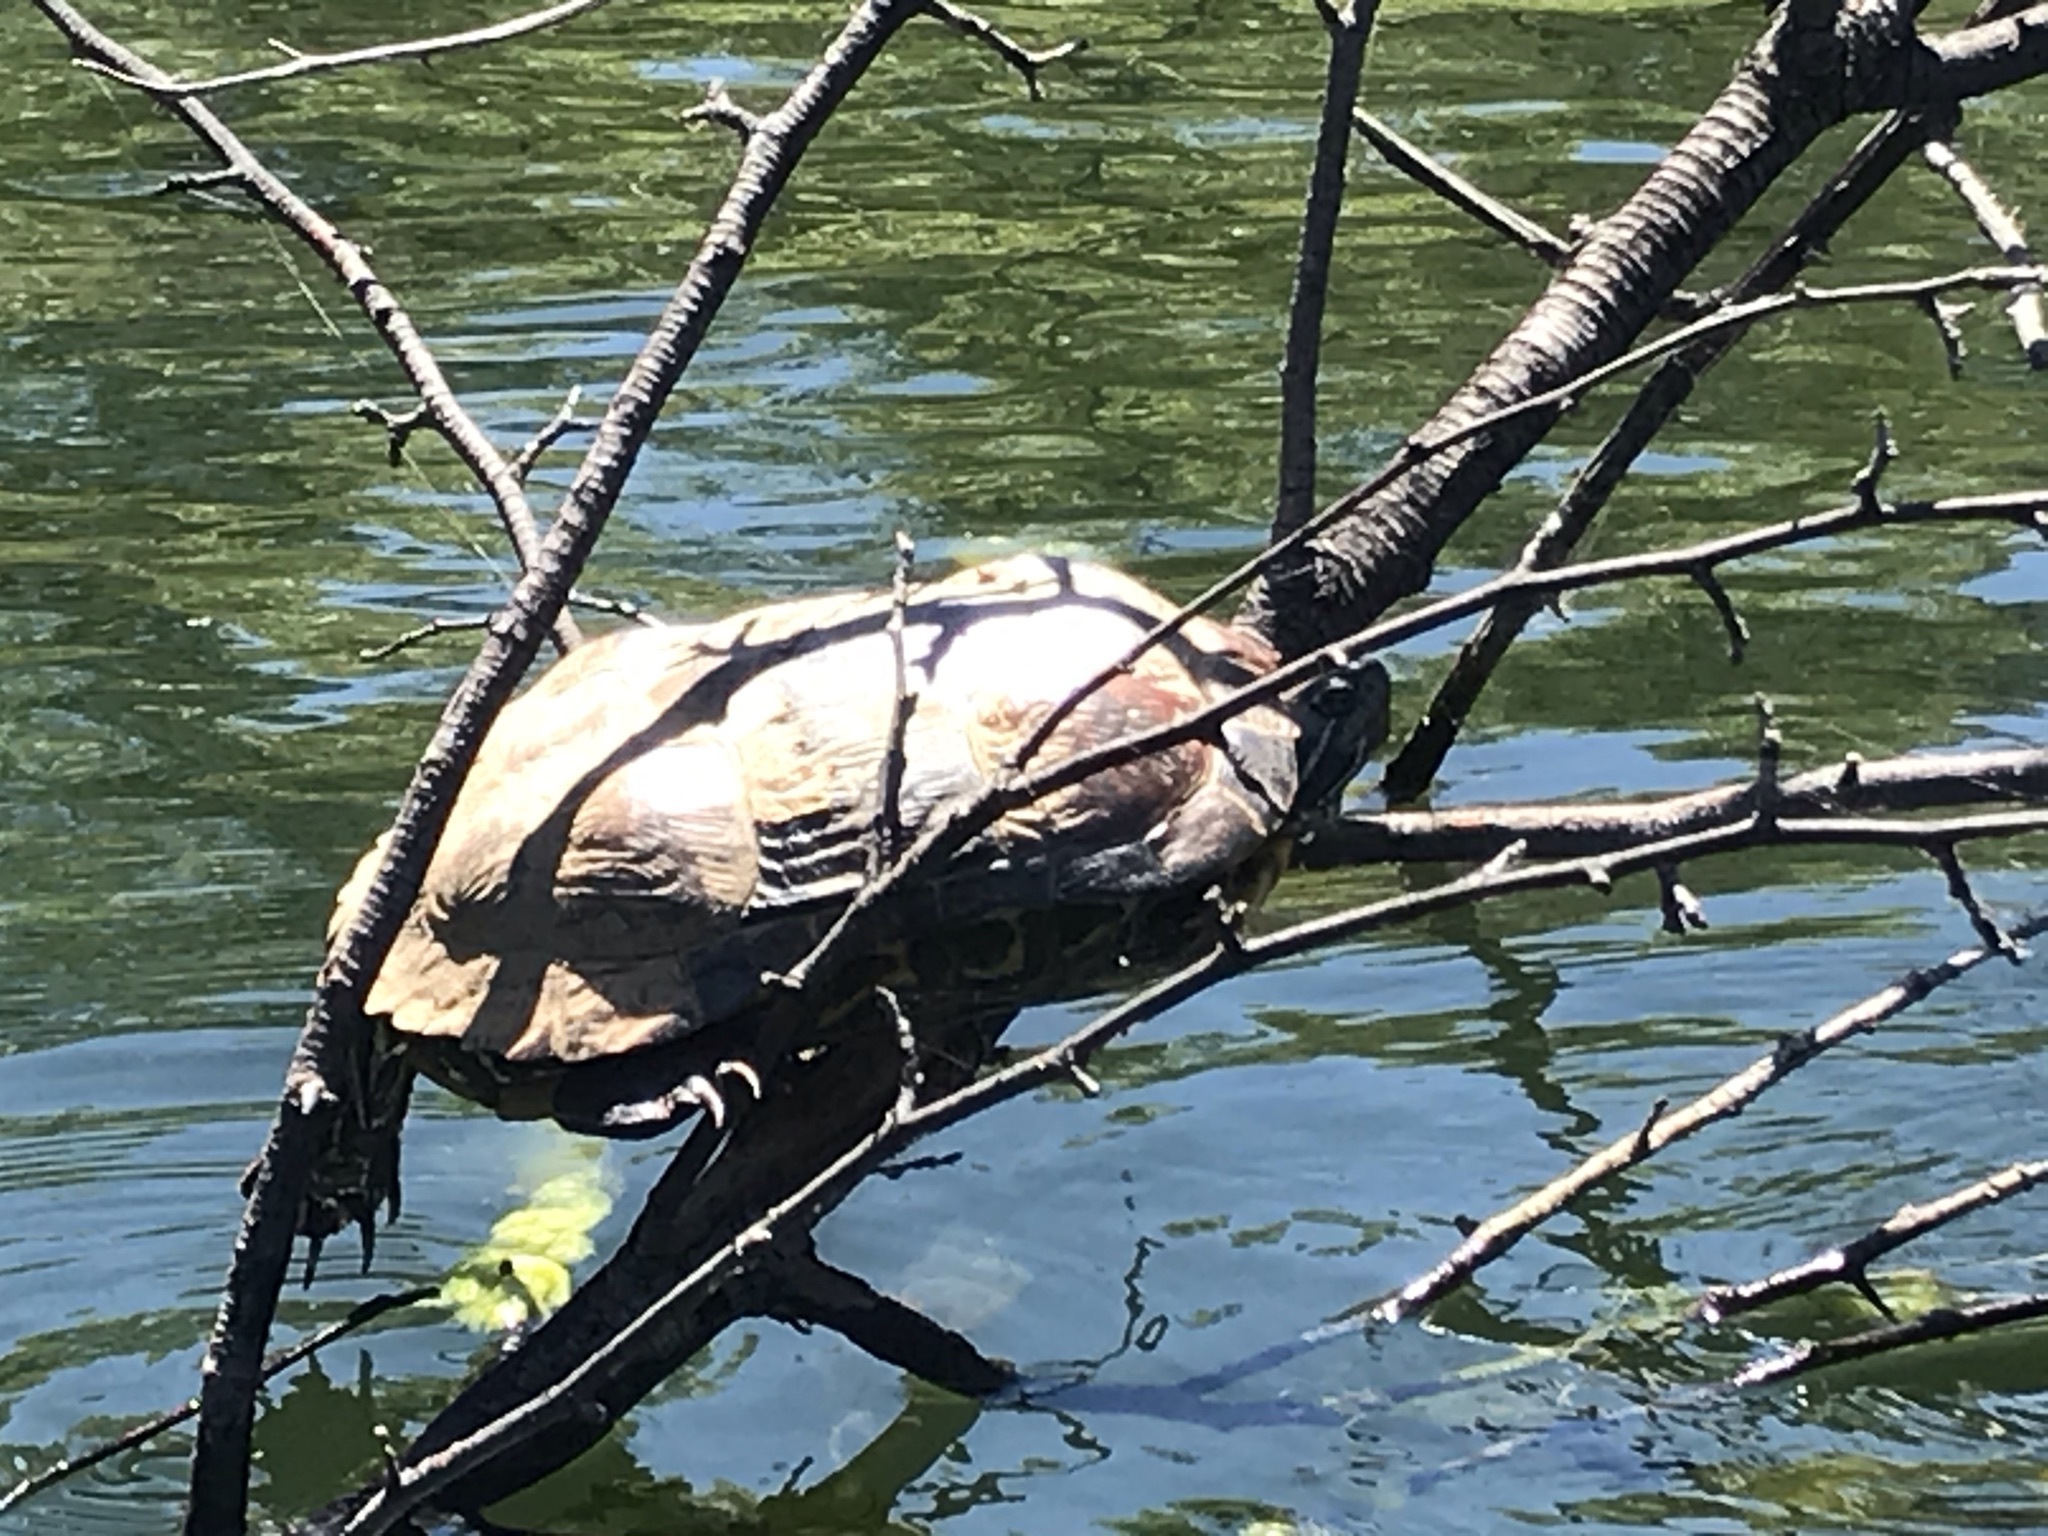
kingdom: Animalia
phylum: Chordata
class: Testudines
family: Emydidae
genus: Trachemys
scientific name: Trachemys scripta
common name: Slider
